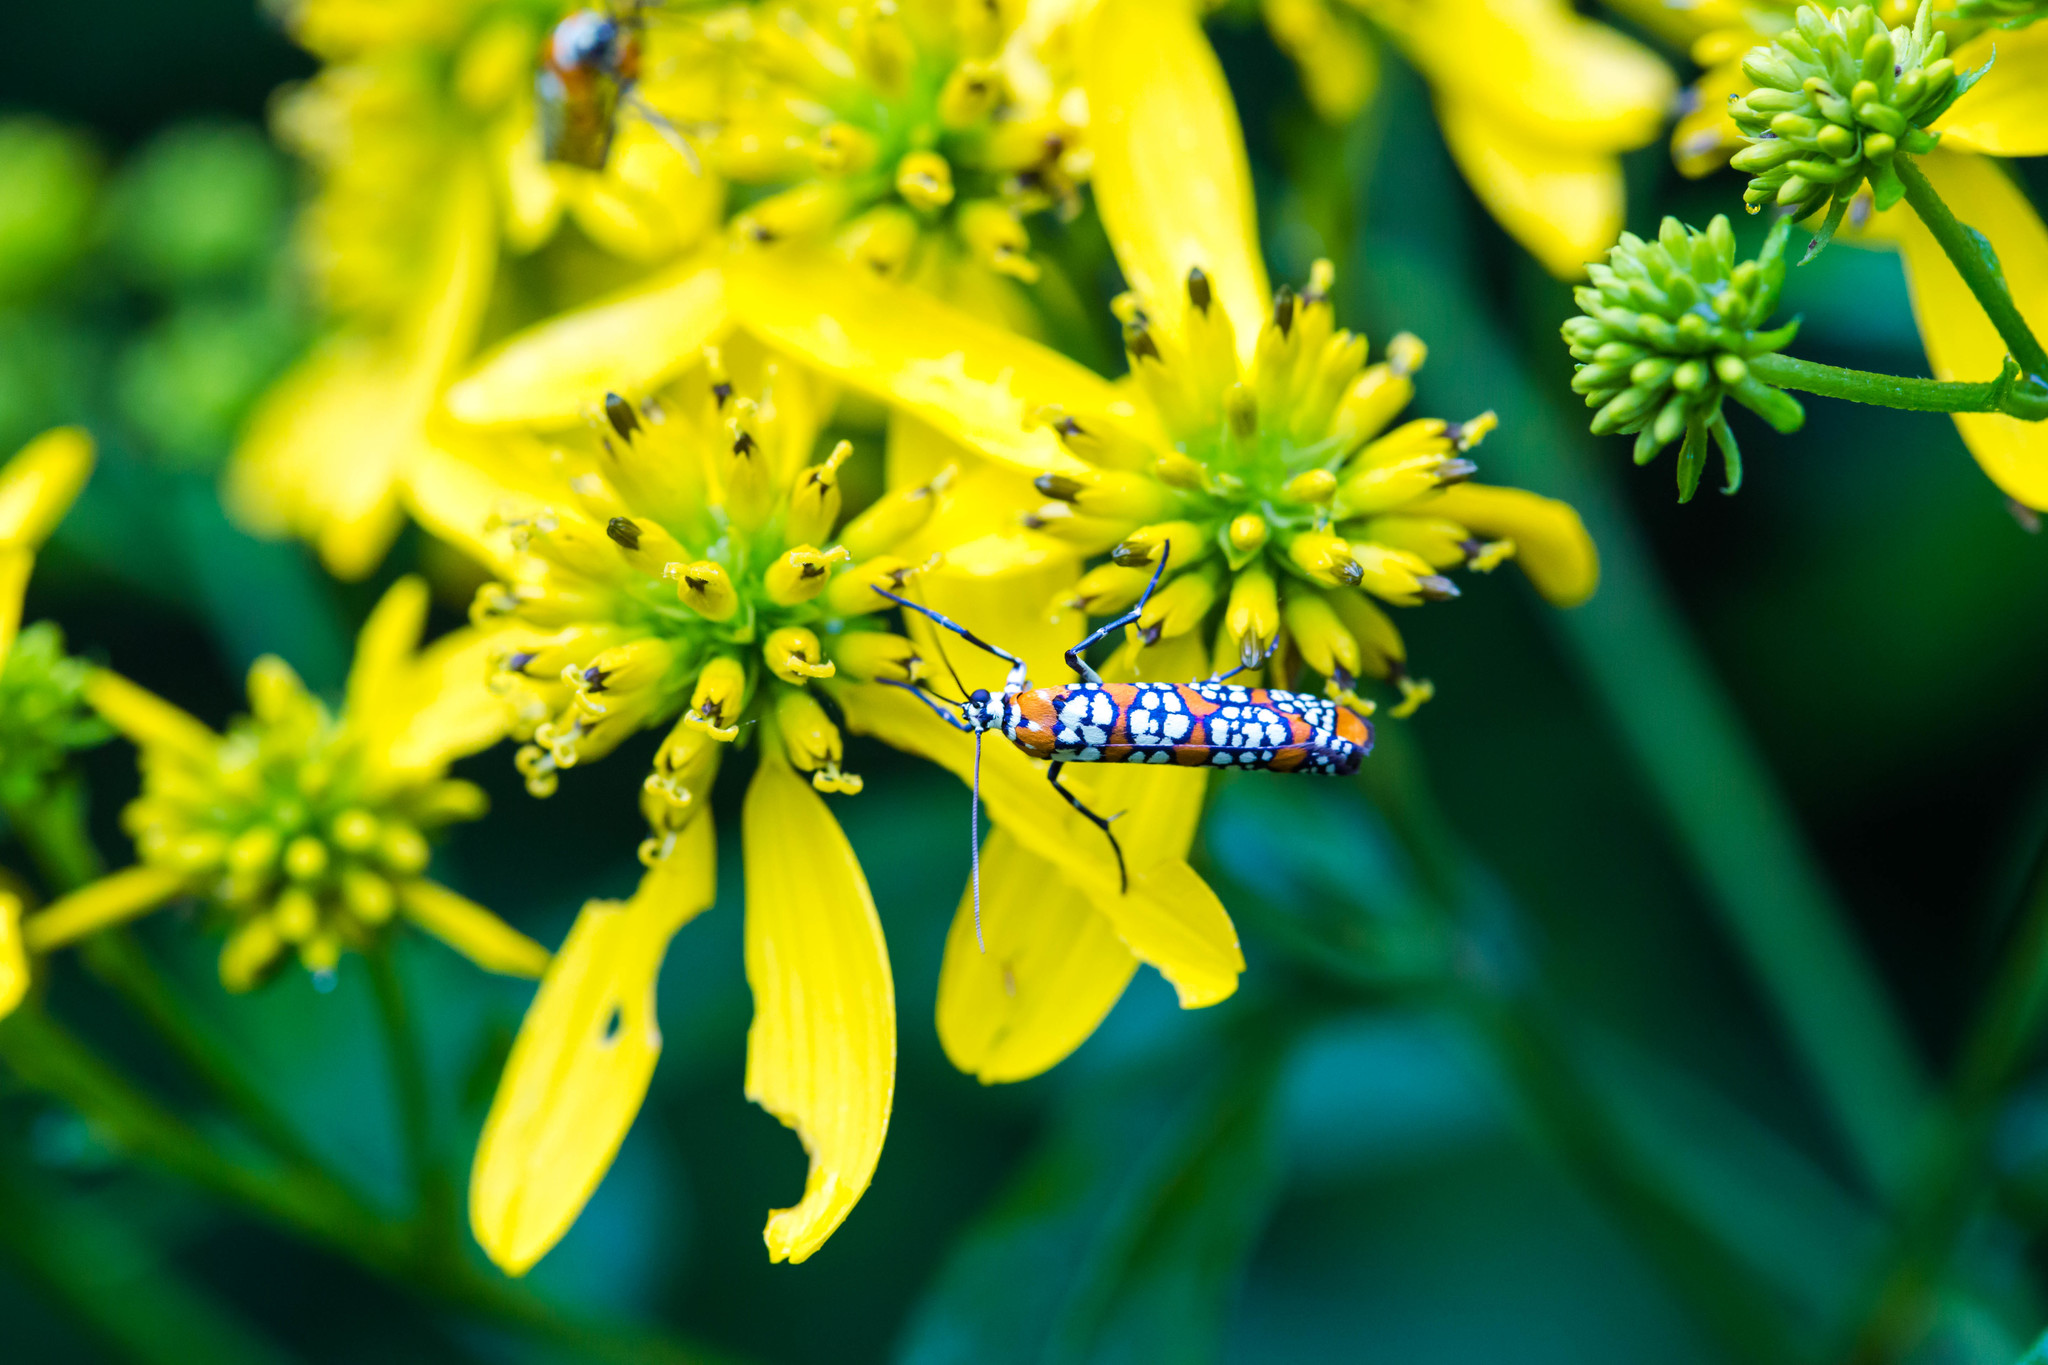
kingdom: Animalia
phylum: Arthropoda
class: Insecta
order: Lepidoptera
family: Attevidae
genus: Atteva
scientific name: Atteva punctella
